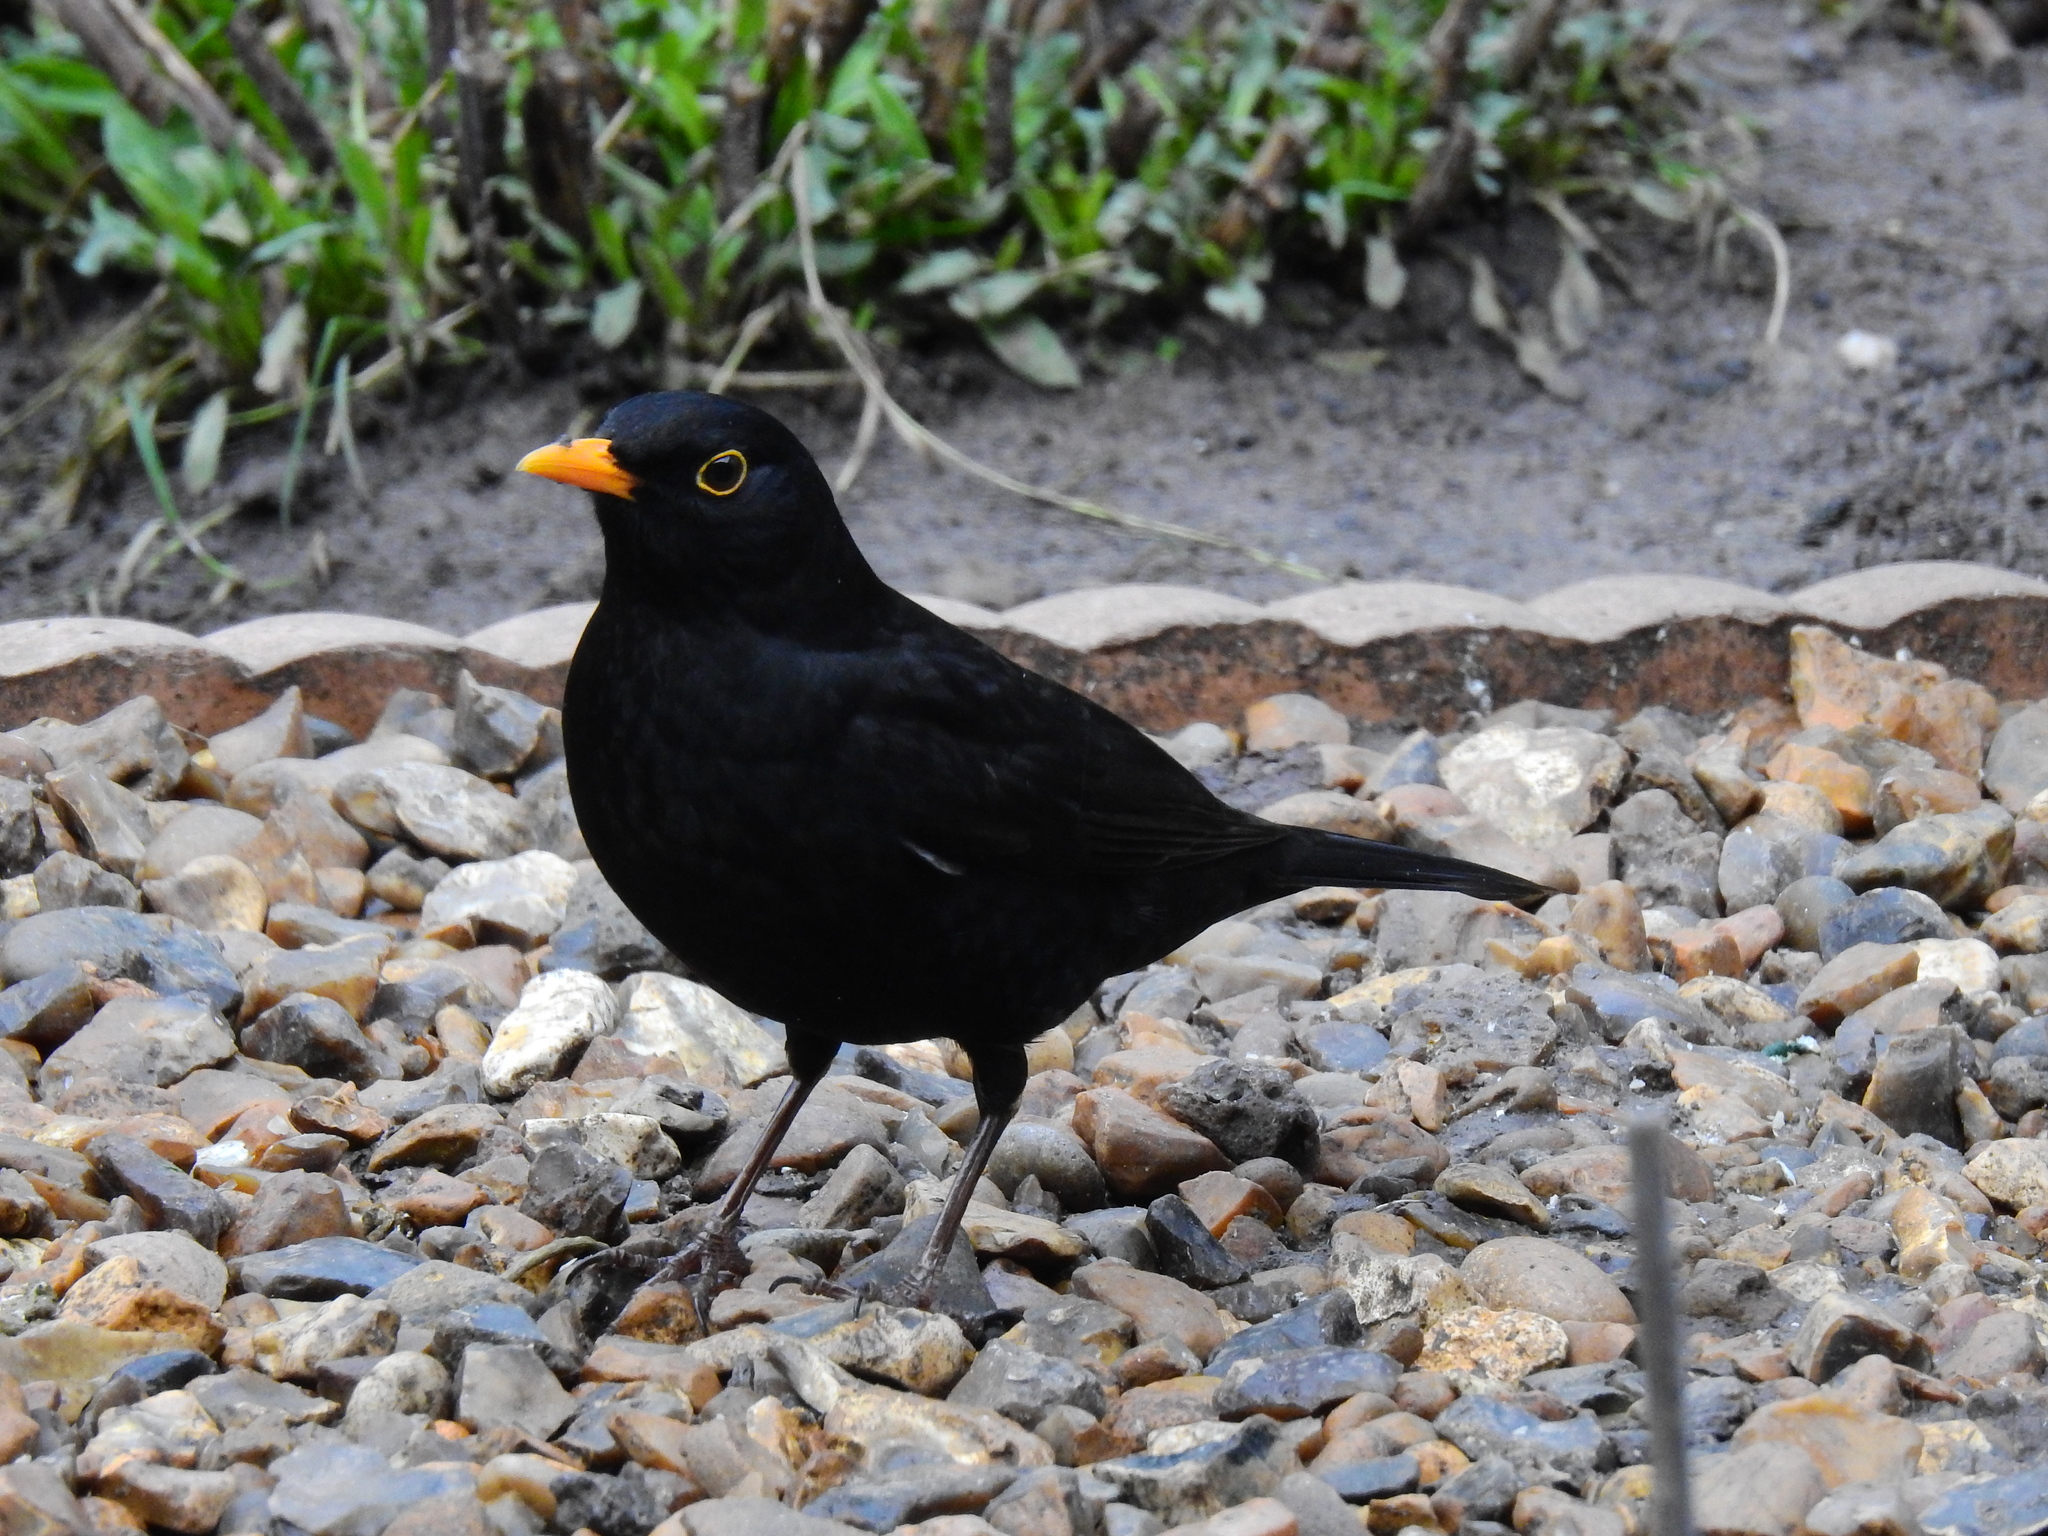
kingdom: Animalia
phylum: Chordata
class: Aves
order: Passeriformes
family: Turdidae
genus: Turdus
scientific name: Turdus merula
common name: Common blackbird
